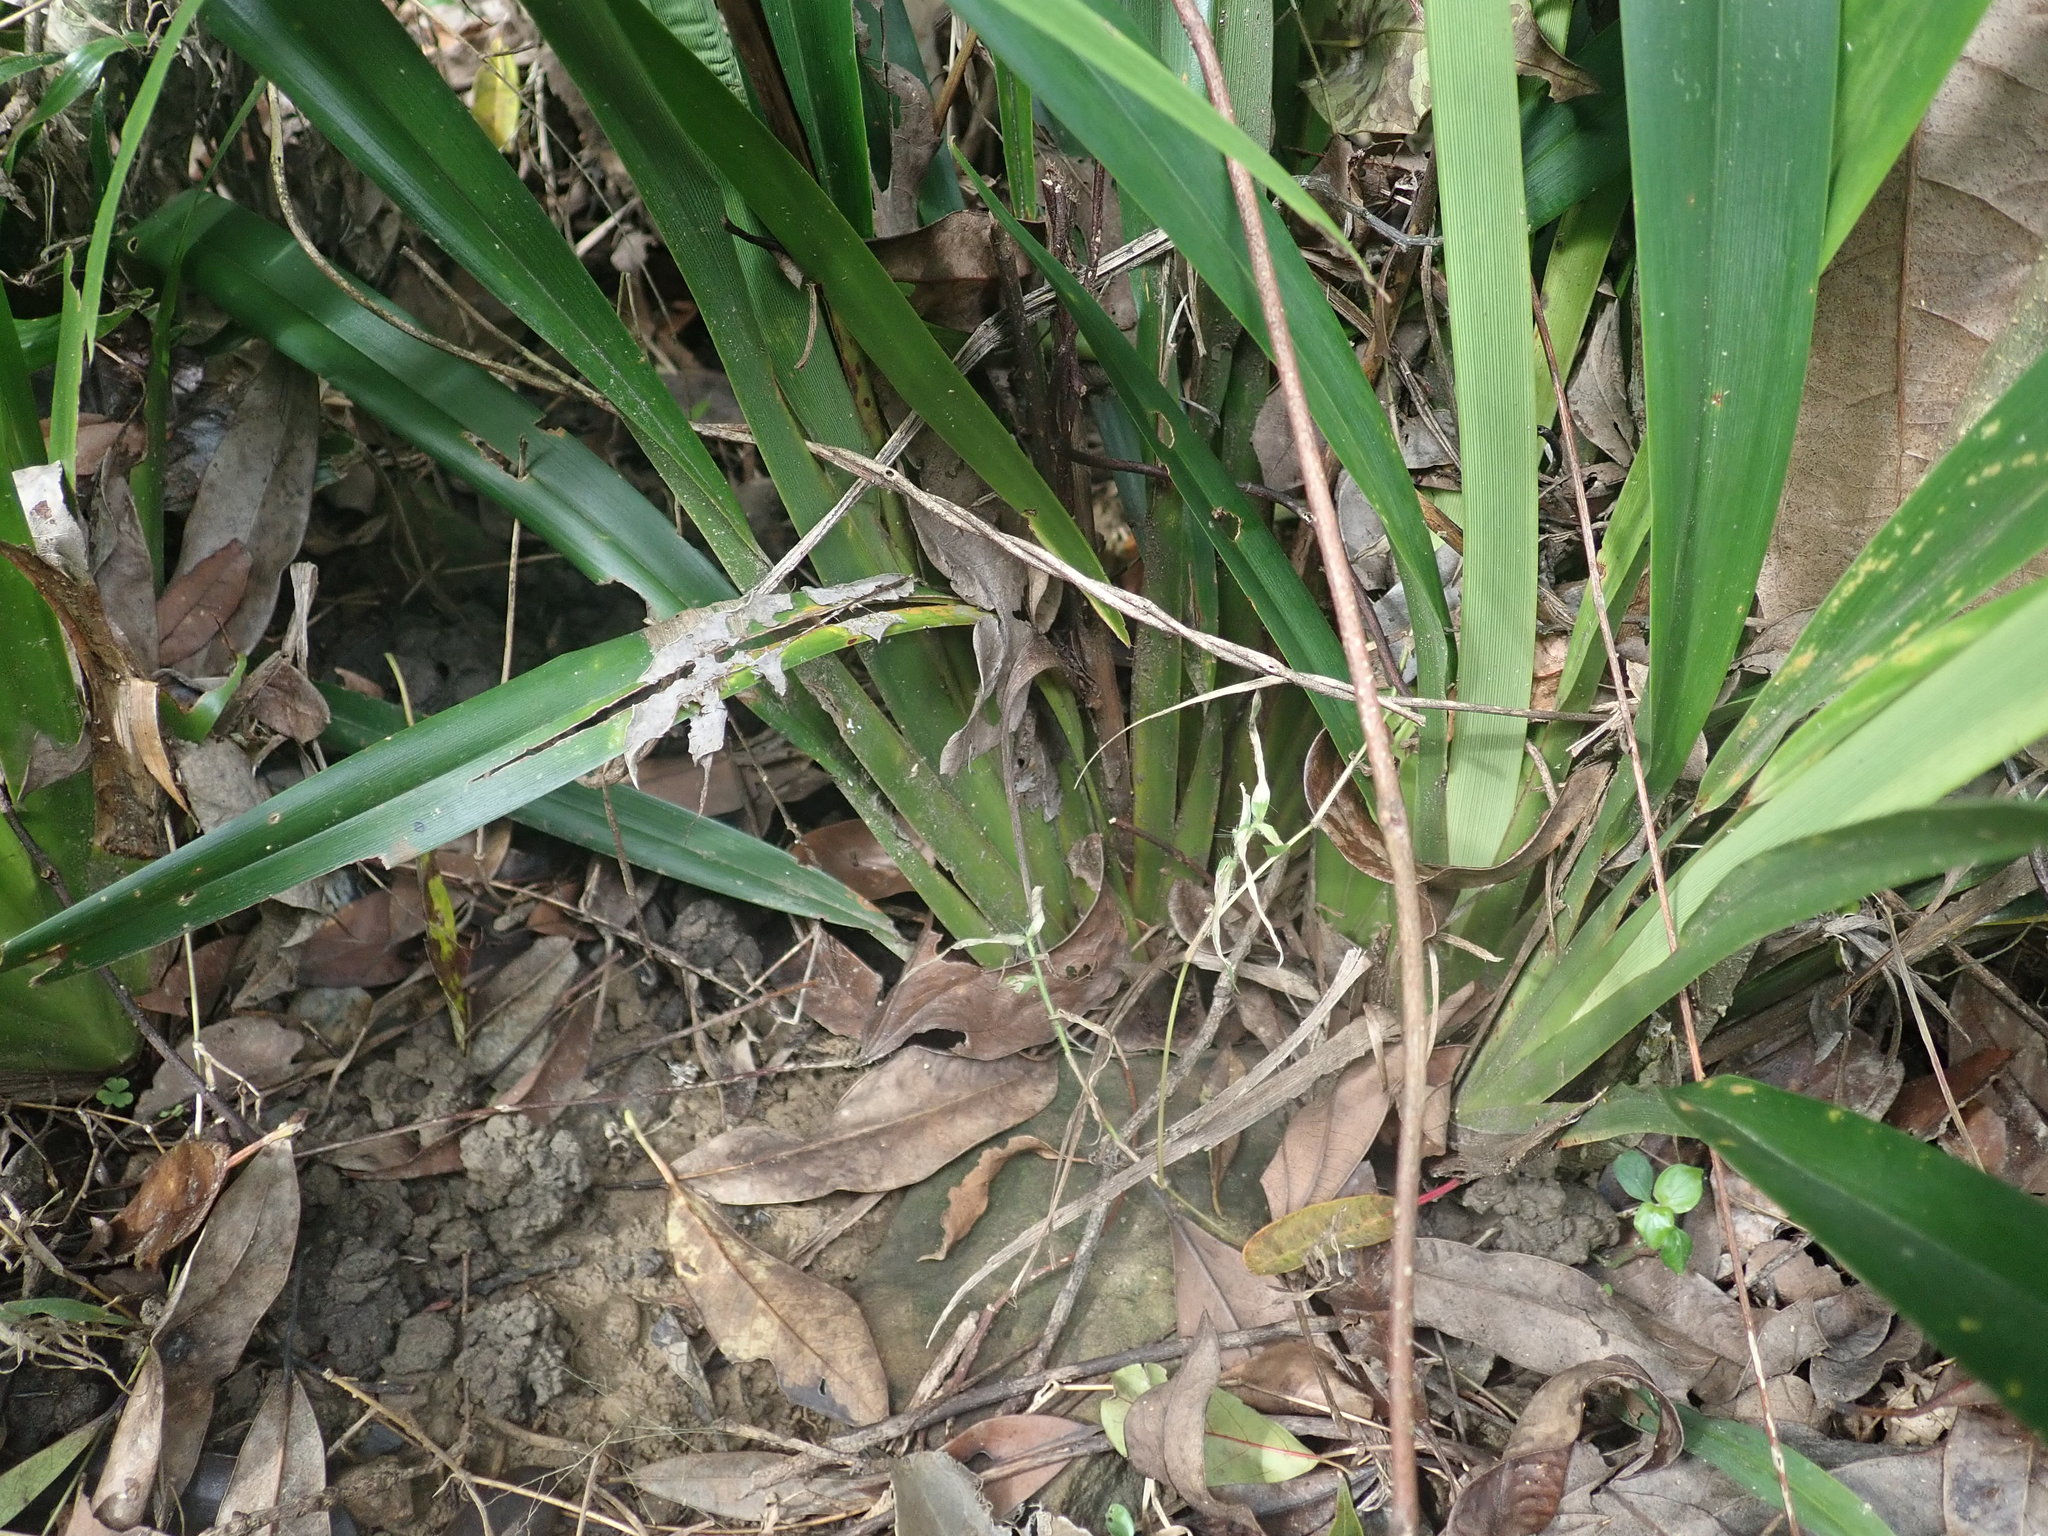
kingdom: Plantae
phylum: Tracheophyta
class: Liliopsida
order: Asparagales
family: Asphodelaceae
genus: Dianella
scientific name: Dianella ensifolia
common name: New zealand lilyplant
